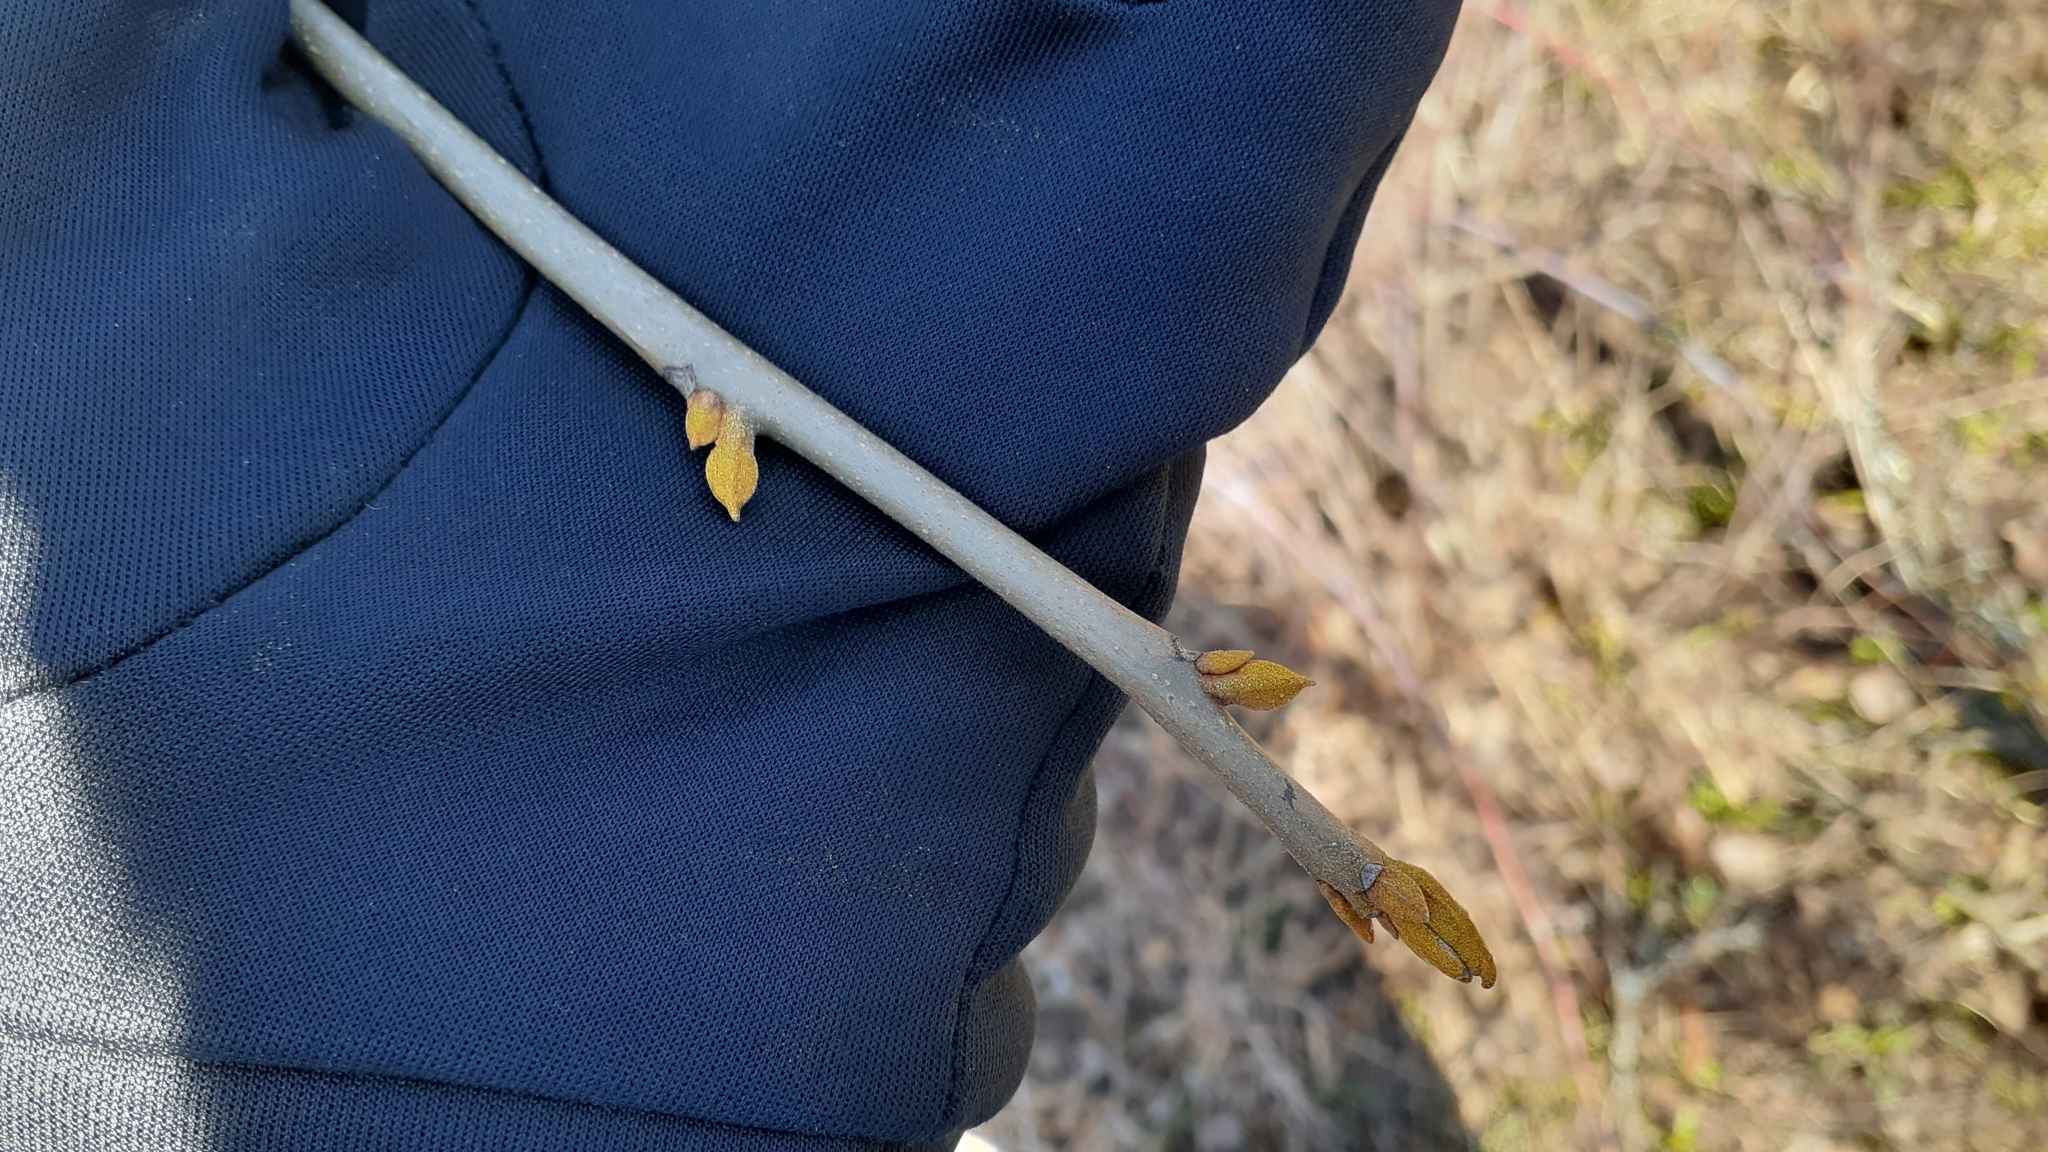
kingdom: Plantae
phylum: Tracheophyta
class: Magnoliopsida
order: Fagales
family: Juglandaceae
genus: Carya
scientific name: Carya cordiformis
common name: Bitternut hickory
